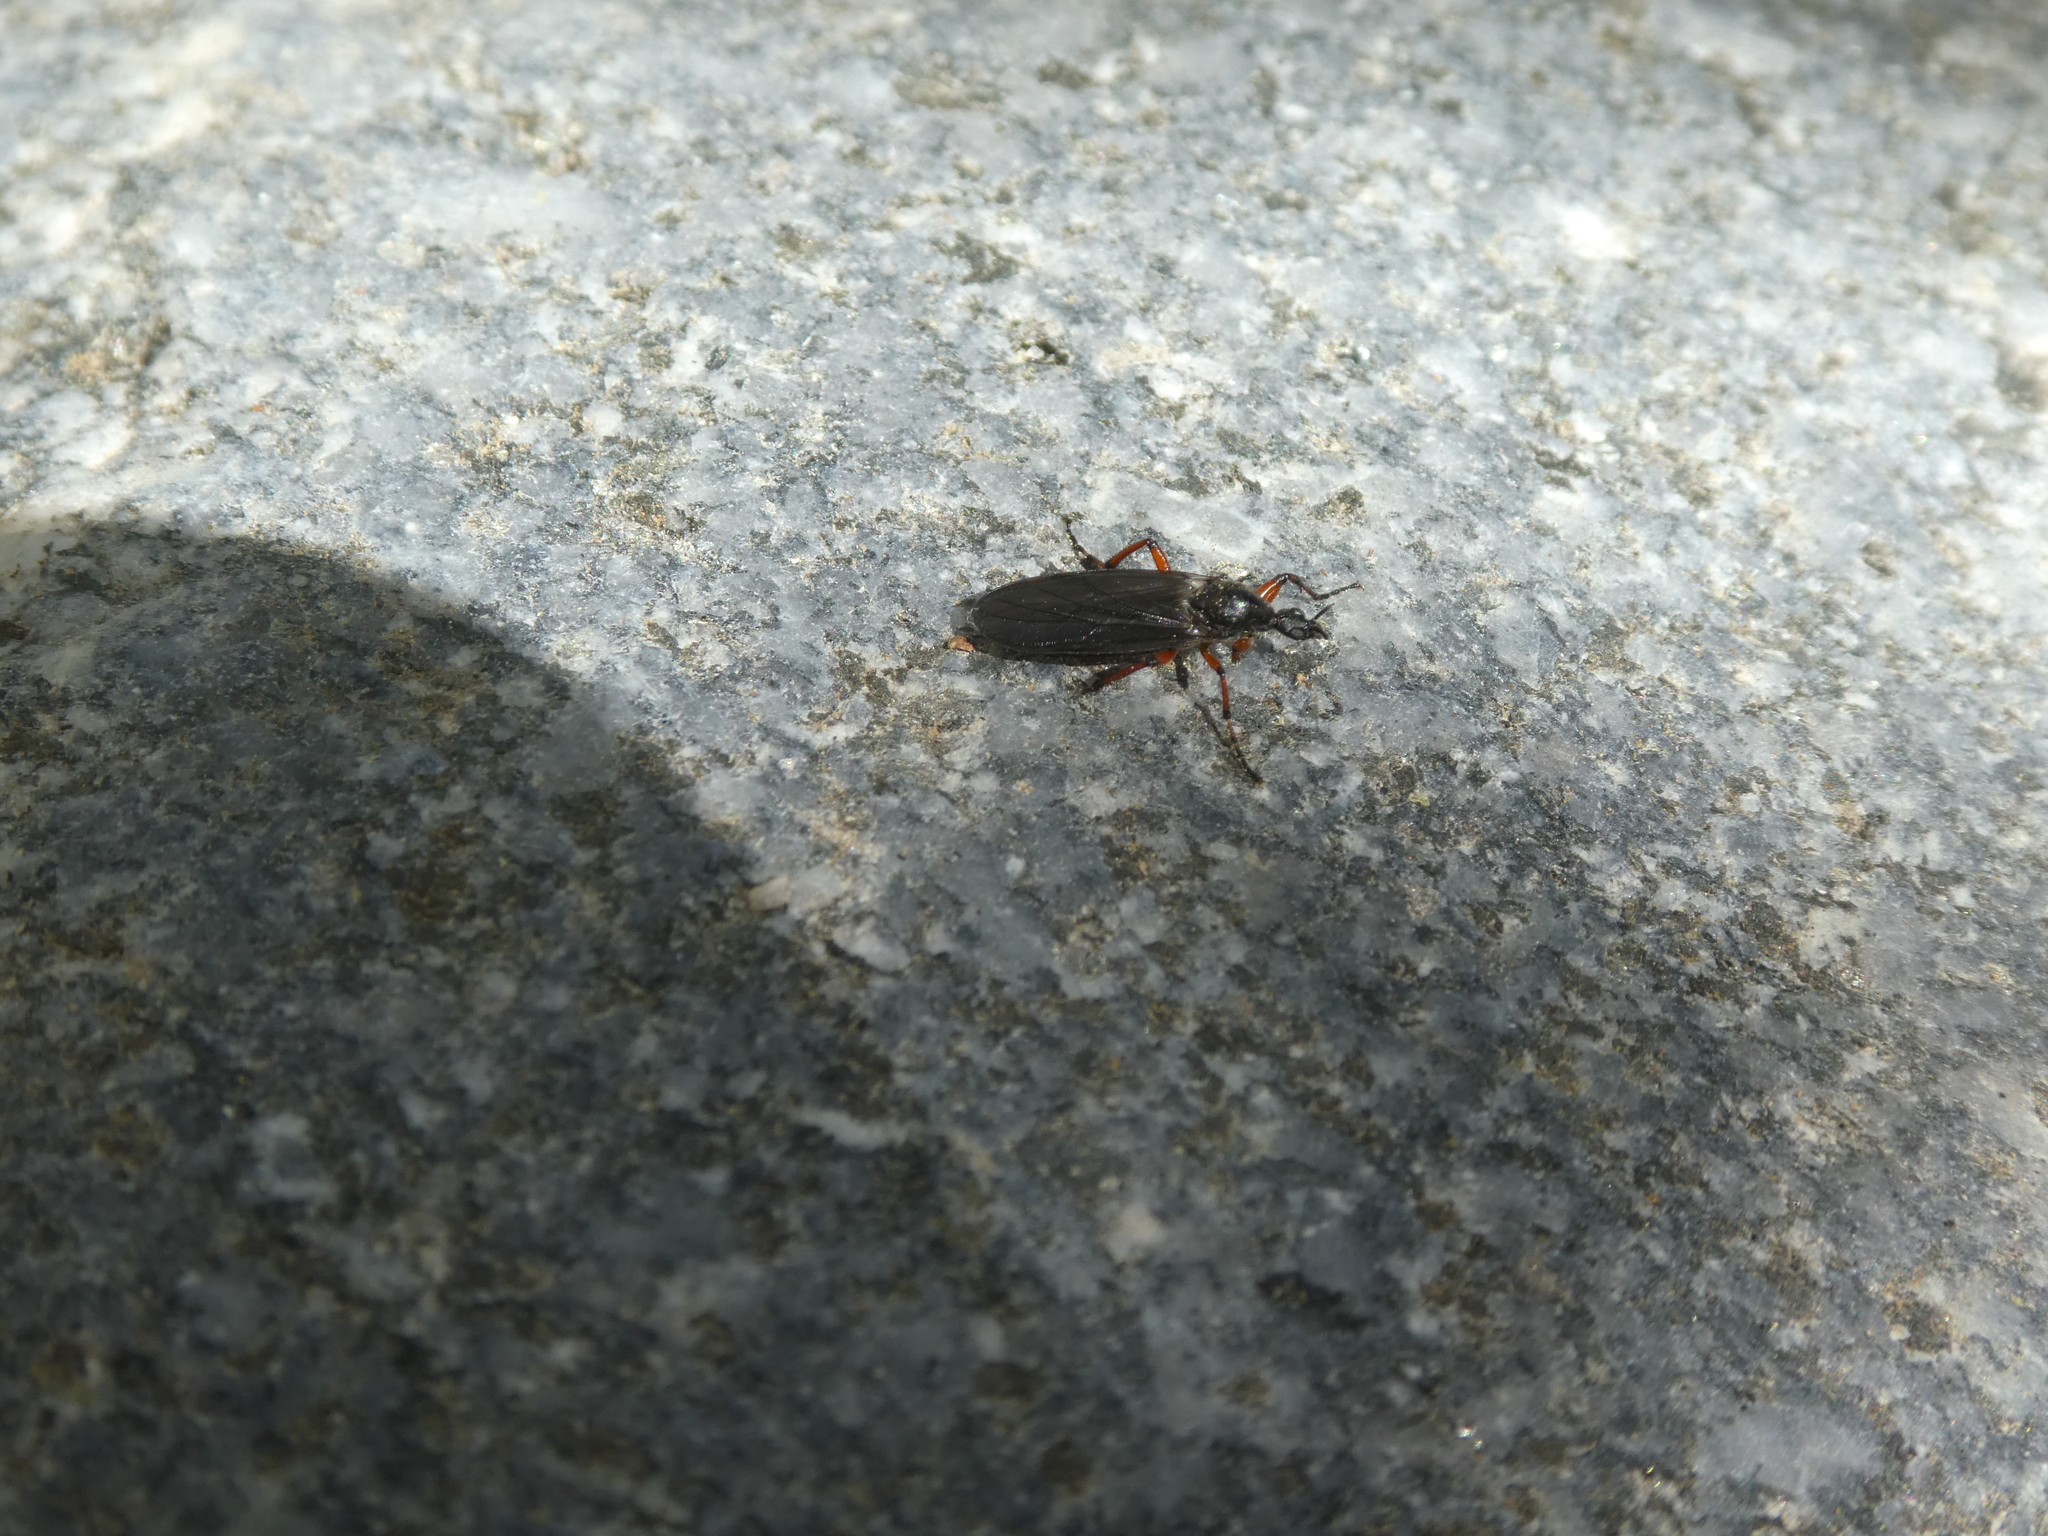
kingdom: Animalia
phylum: Arthropoda
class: Insecta
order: Diptera
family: Bibionidae
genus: Bibio
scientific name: Bibio
